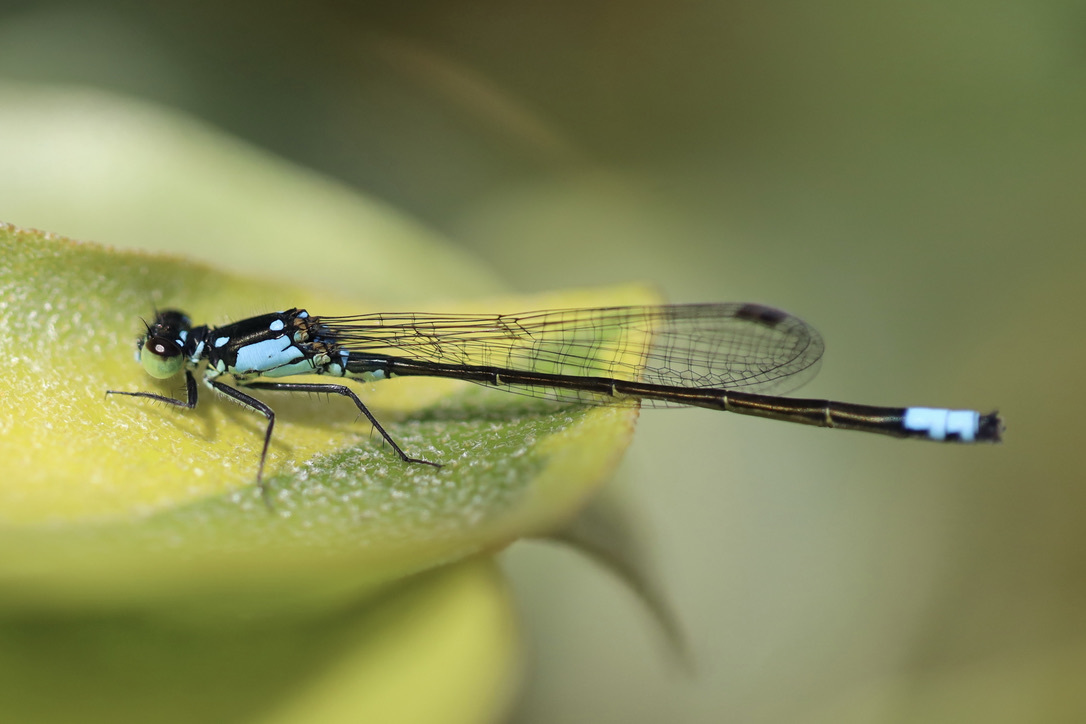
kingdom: Animalia
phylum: Arthropoda
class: Insecta
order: Odonata
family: Coenagrionidae
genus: Ischnura
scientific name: Ischnura cervula
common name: Pacific forktail
